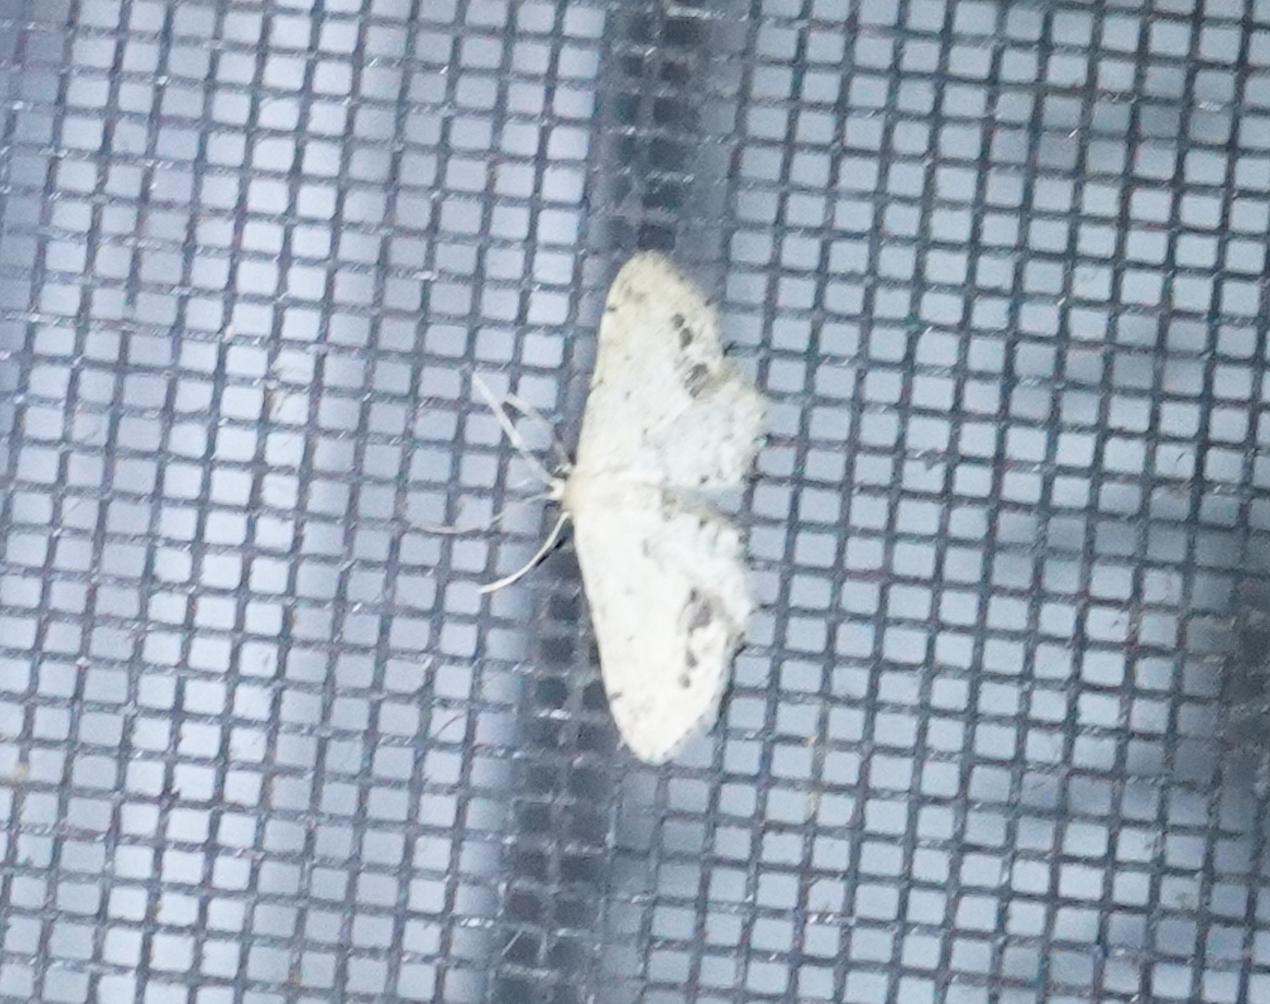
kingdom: Animalia
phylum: Arthropoda
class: Insecta
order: Lepidoptera
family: Geometridae
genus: Idaea
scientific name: Idaea dimidiata
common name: Single-dotted wave
